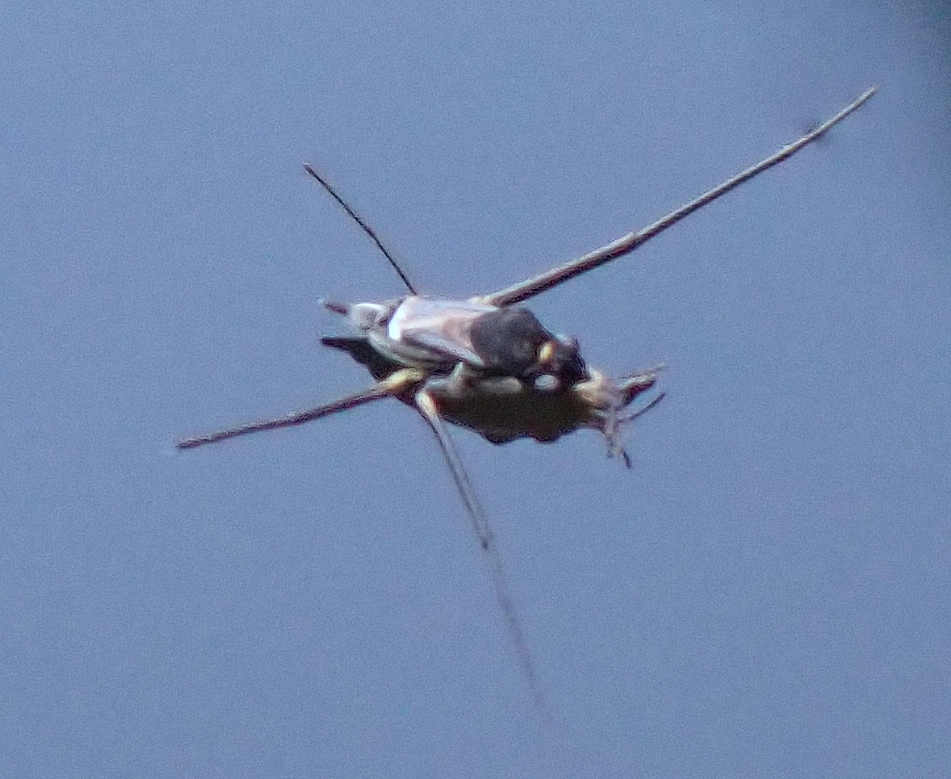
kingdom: Animalia
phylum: Arthropoda
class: Insecta
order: Hemiptera
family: Gerridae
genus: Rheumatobates
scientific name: Rheumatobates
